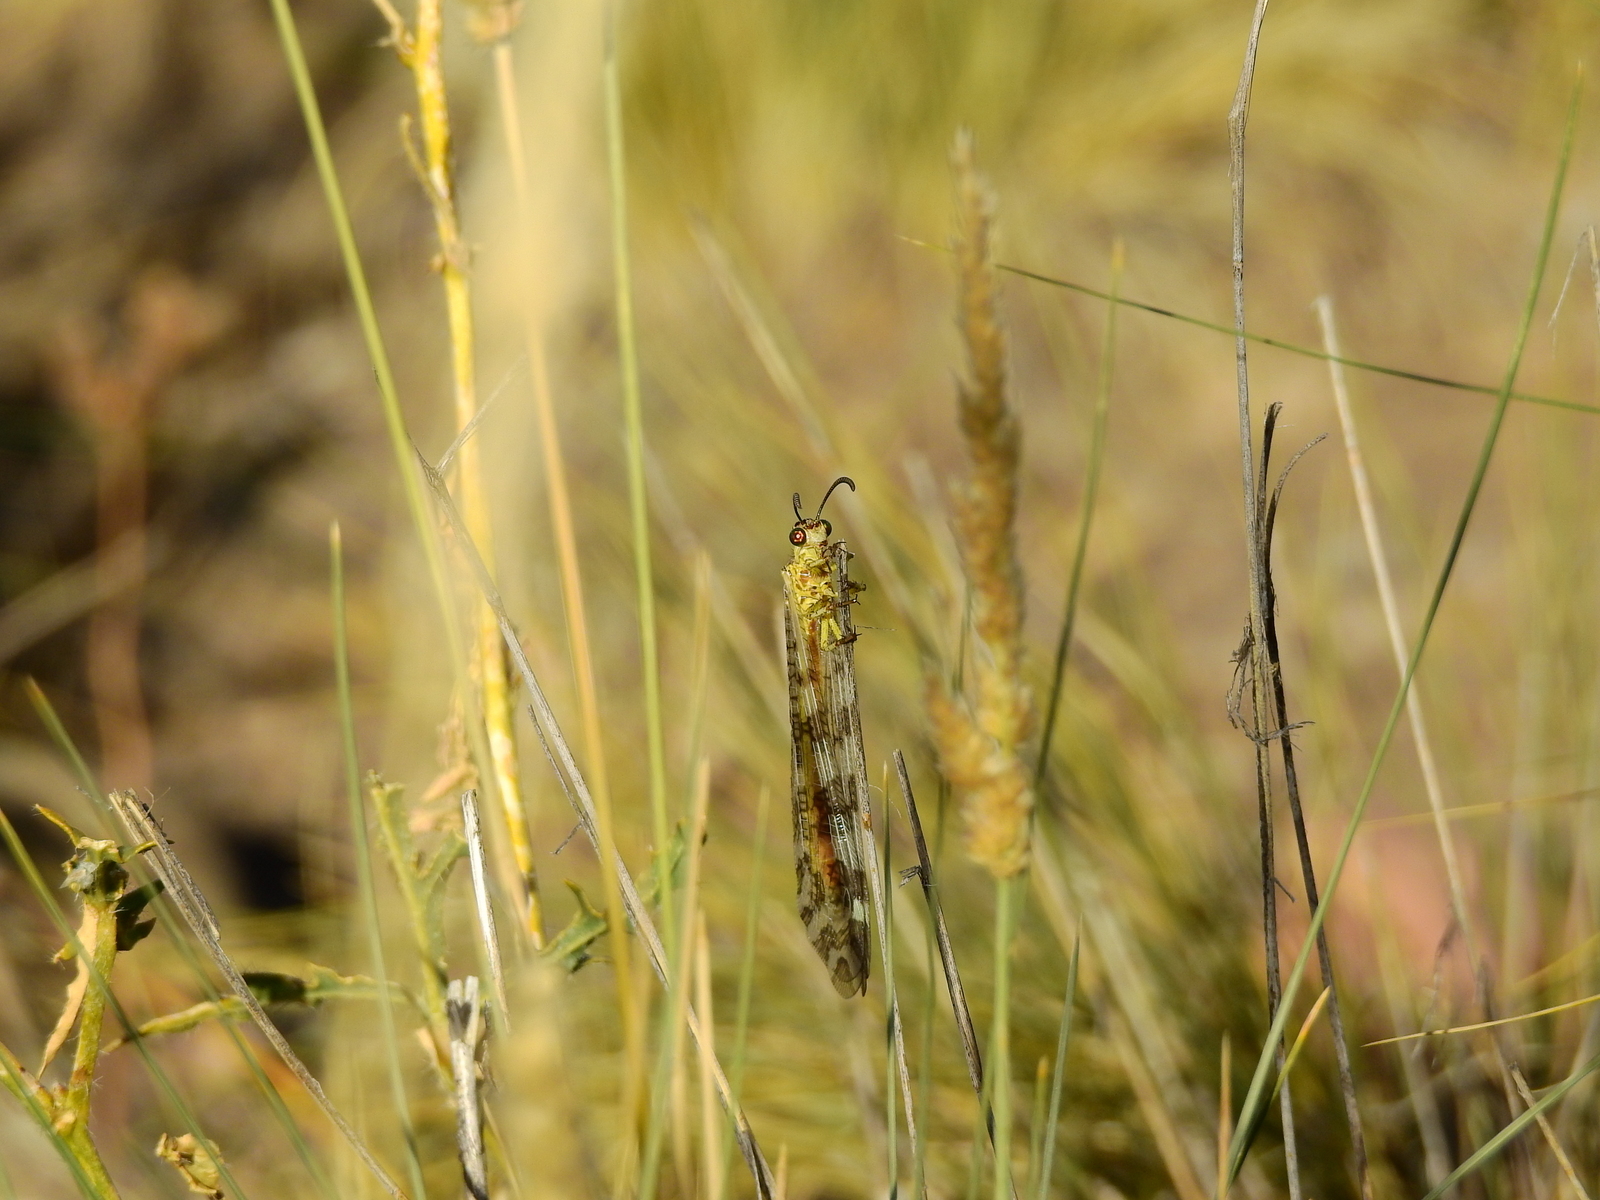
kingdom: Animalia
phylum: Arthropoda
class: Insecta
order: Neuroptera
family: Myrmeleontidae
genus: Dimares
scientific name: Dimares elegans
